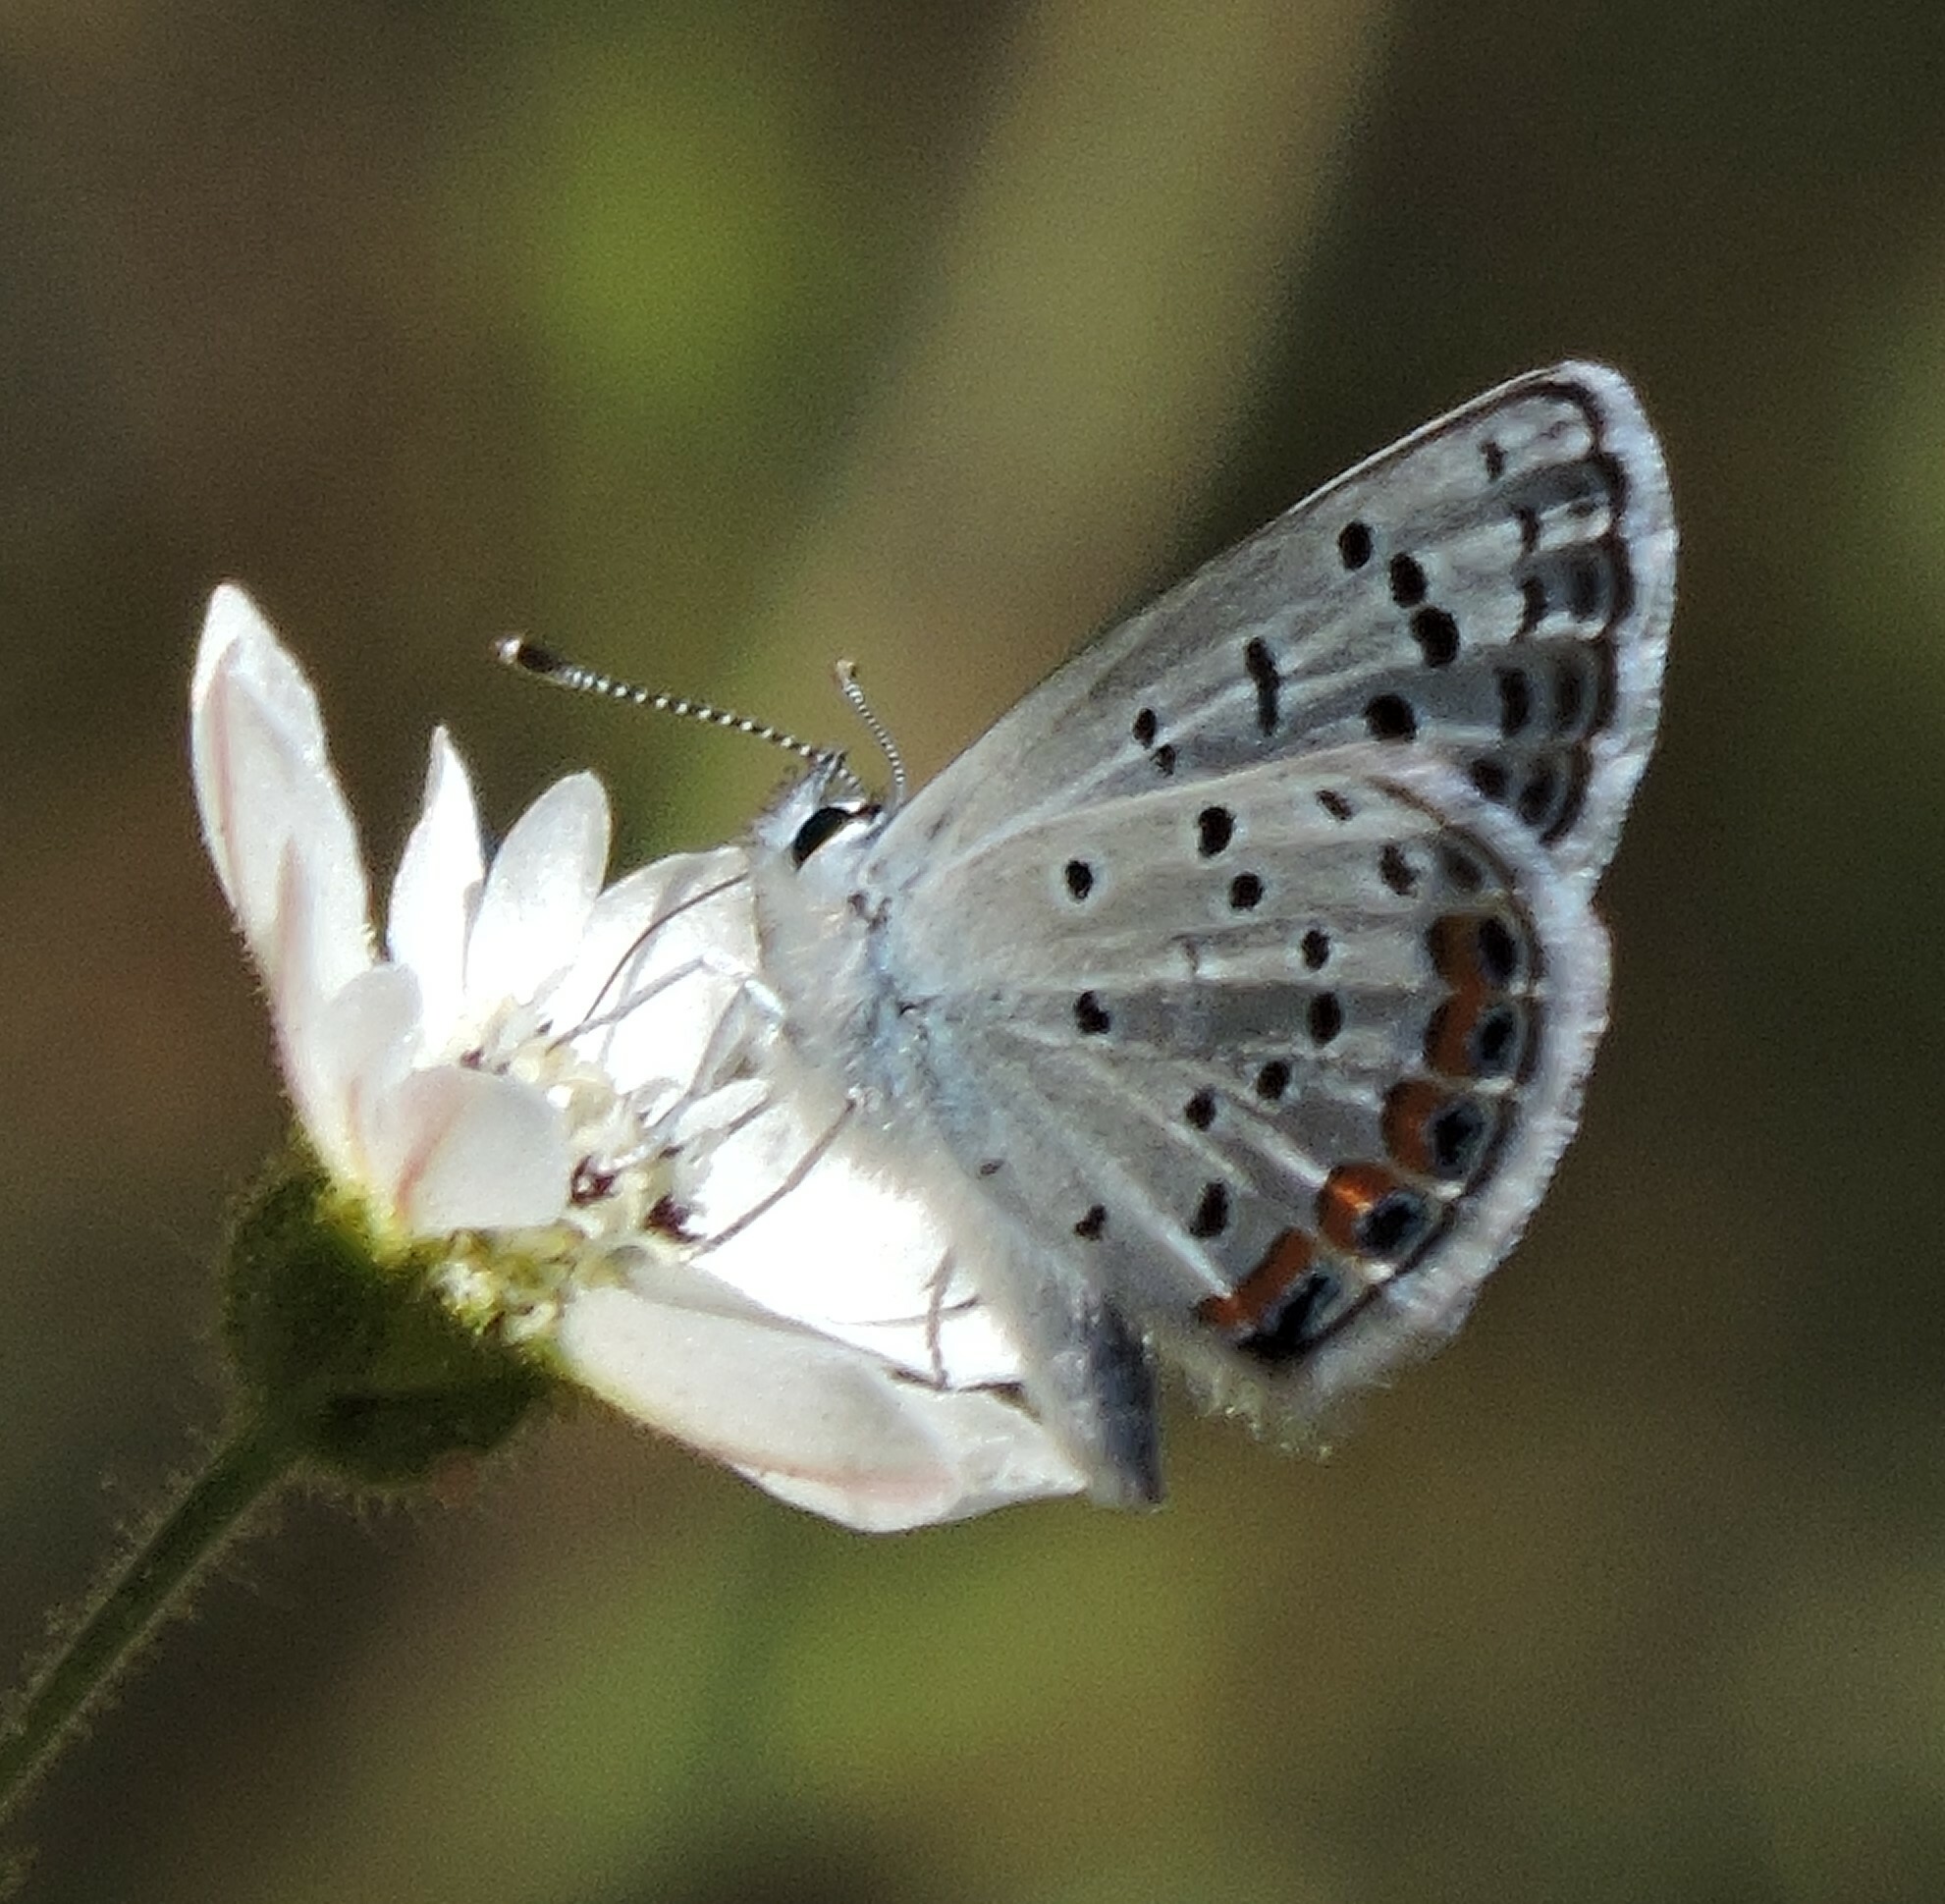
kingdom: Animalia
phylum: Arthropoda
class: Insecta
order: Lepidoptera
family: Lycaenidae
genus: Icaricia
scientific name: Icaricia acmon
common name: Acmon blue
